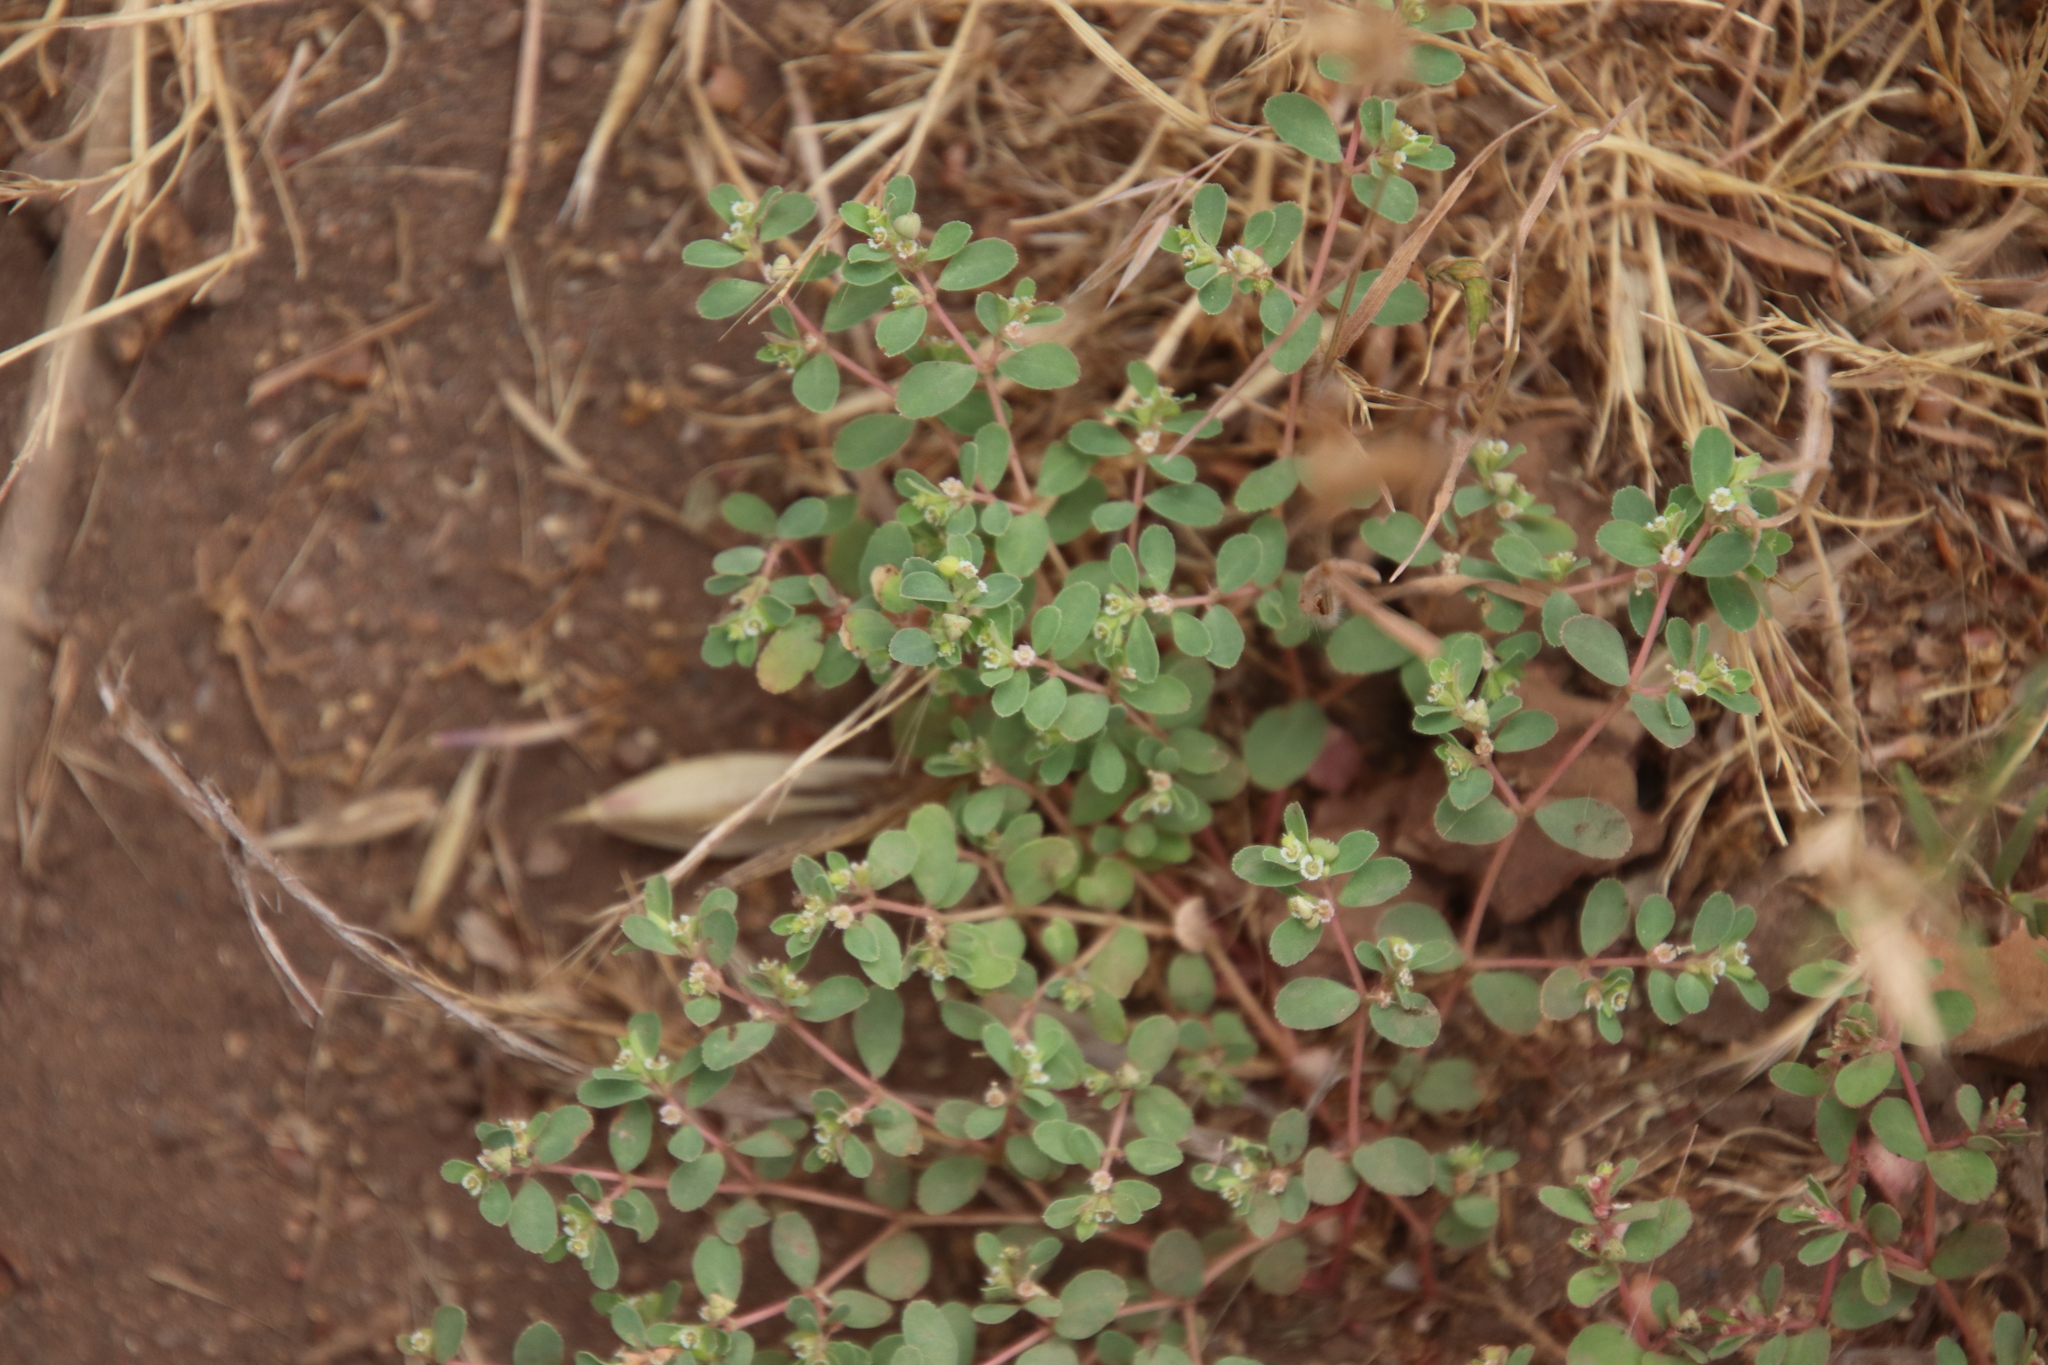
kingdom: Plantae
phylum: Tracheophyta
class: Magnoliopsida
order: Malpighiales
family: Euphorbiaceae
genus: Euphorbia
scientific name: Euphorbia serpillifolia
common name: Thyme-leaf spurge
